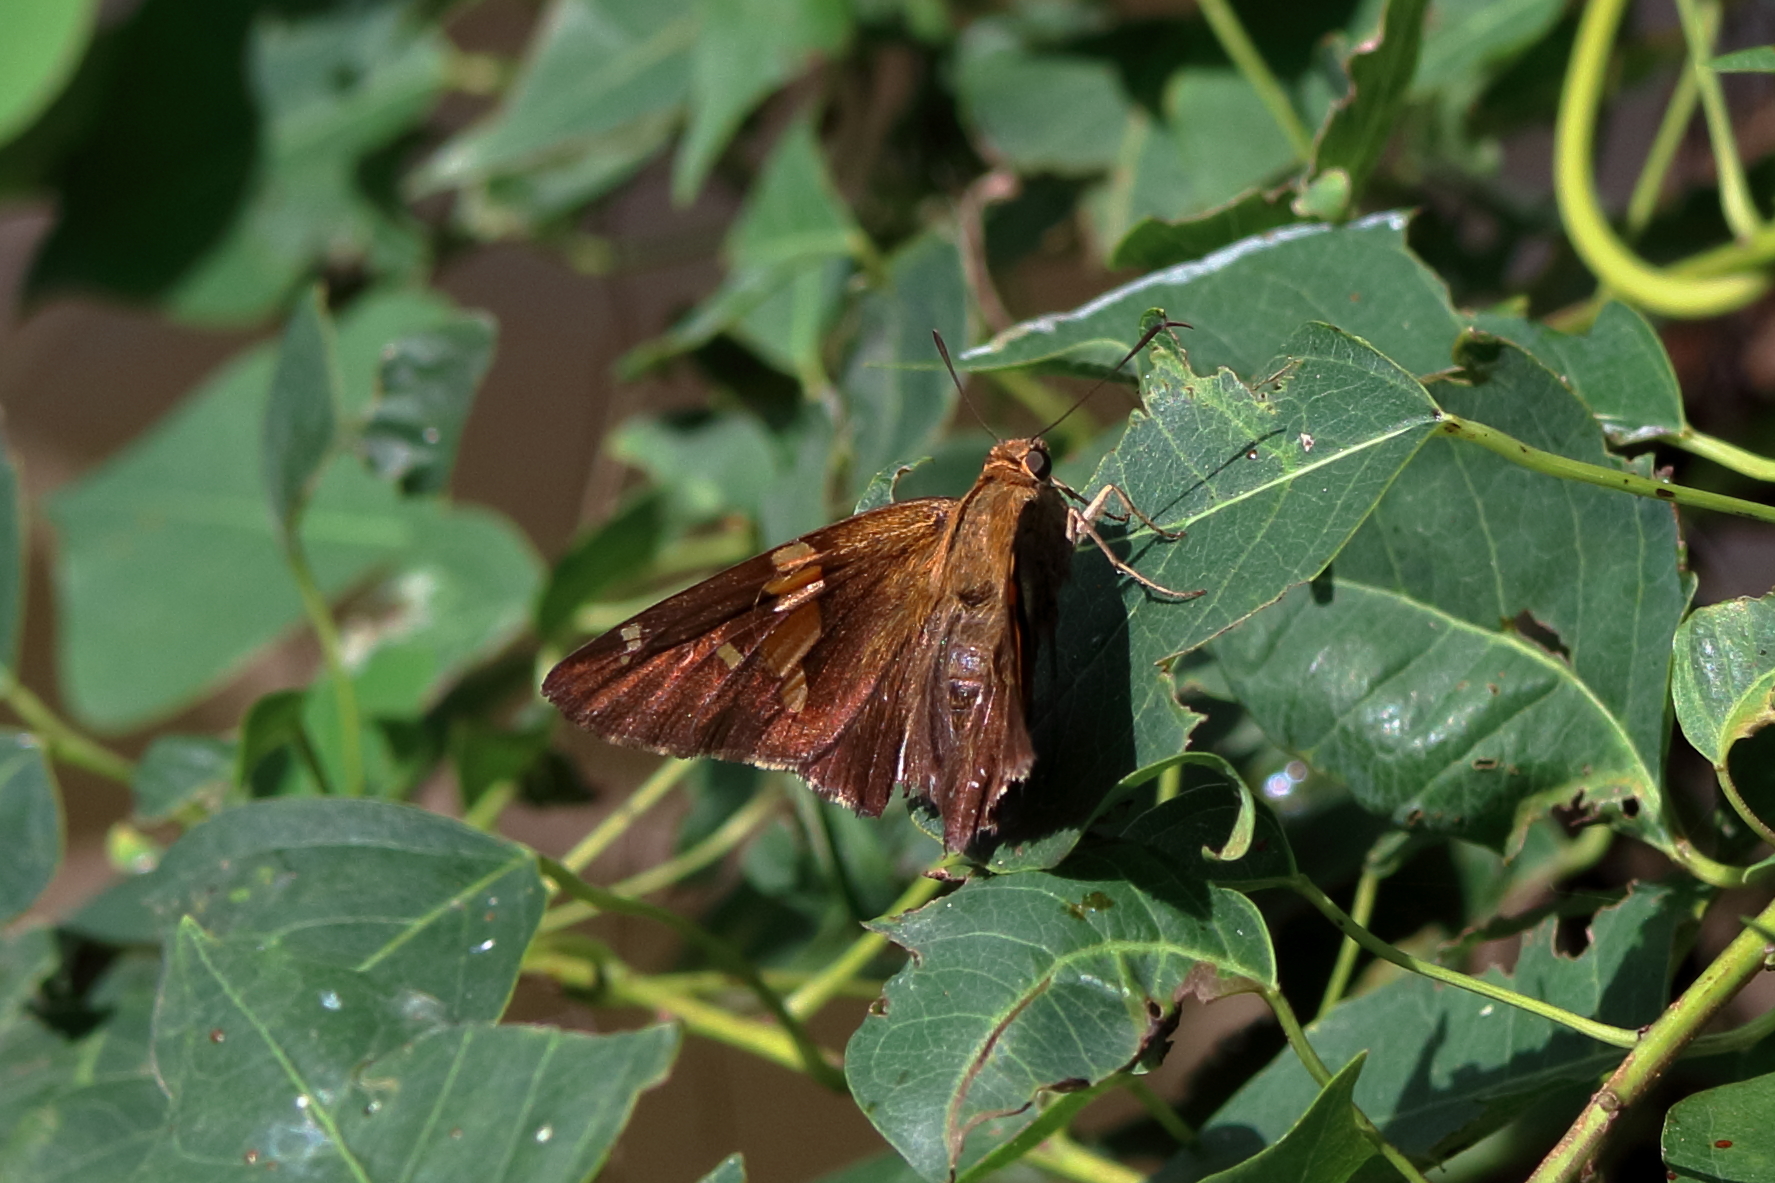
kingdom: Animalia
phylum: Arthropoda
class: Insecta
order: Lepidoptera
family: Hesperiidae
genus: Epargyreus
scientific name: Epargyreus clarus
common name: Silver-spotted skipper
